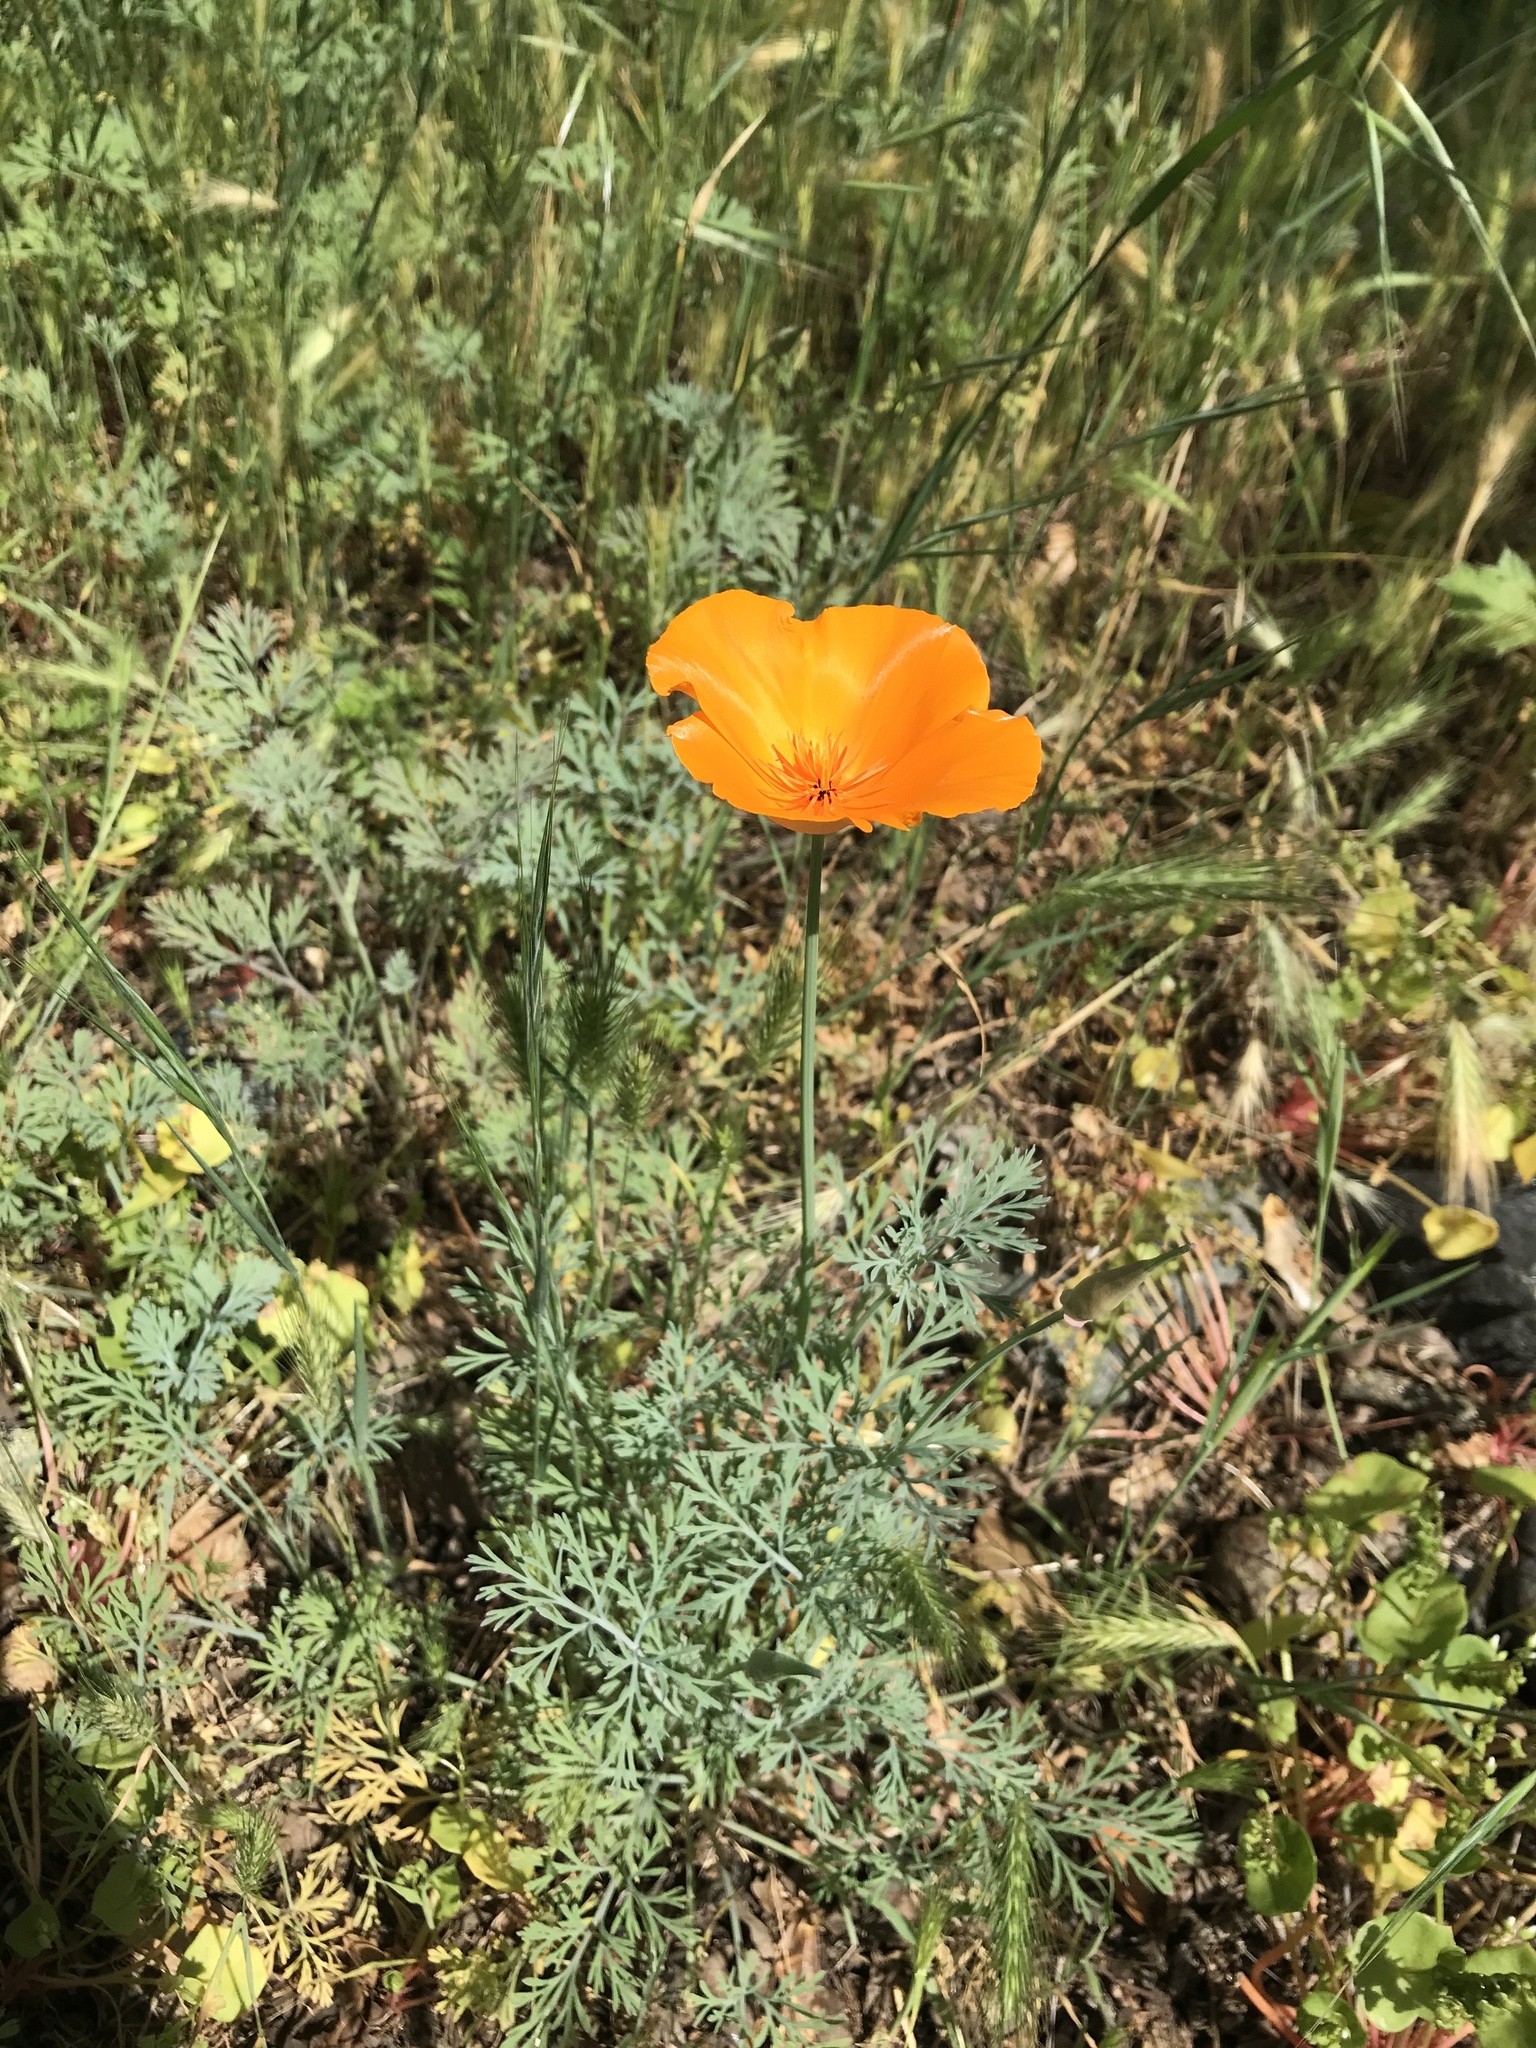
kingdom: Plantae
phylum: Tracheophyta
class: Magnoliopsida
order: Ranunculales
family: Papaveraceae
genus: Eschscholzia
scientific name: Eschscholzia californica
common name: California poppy
